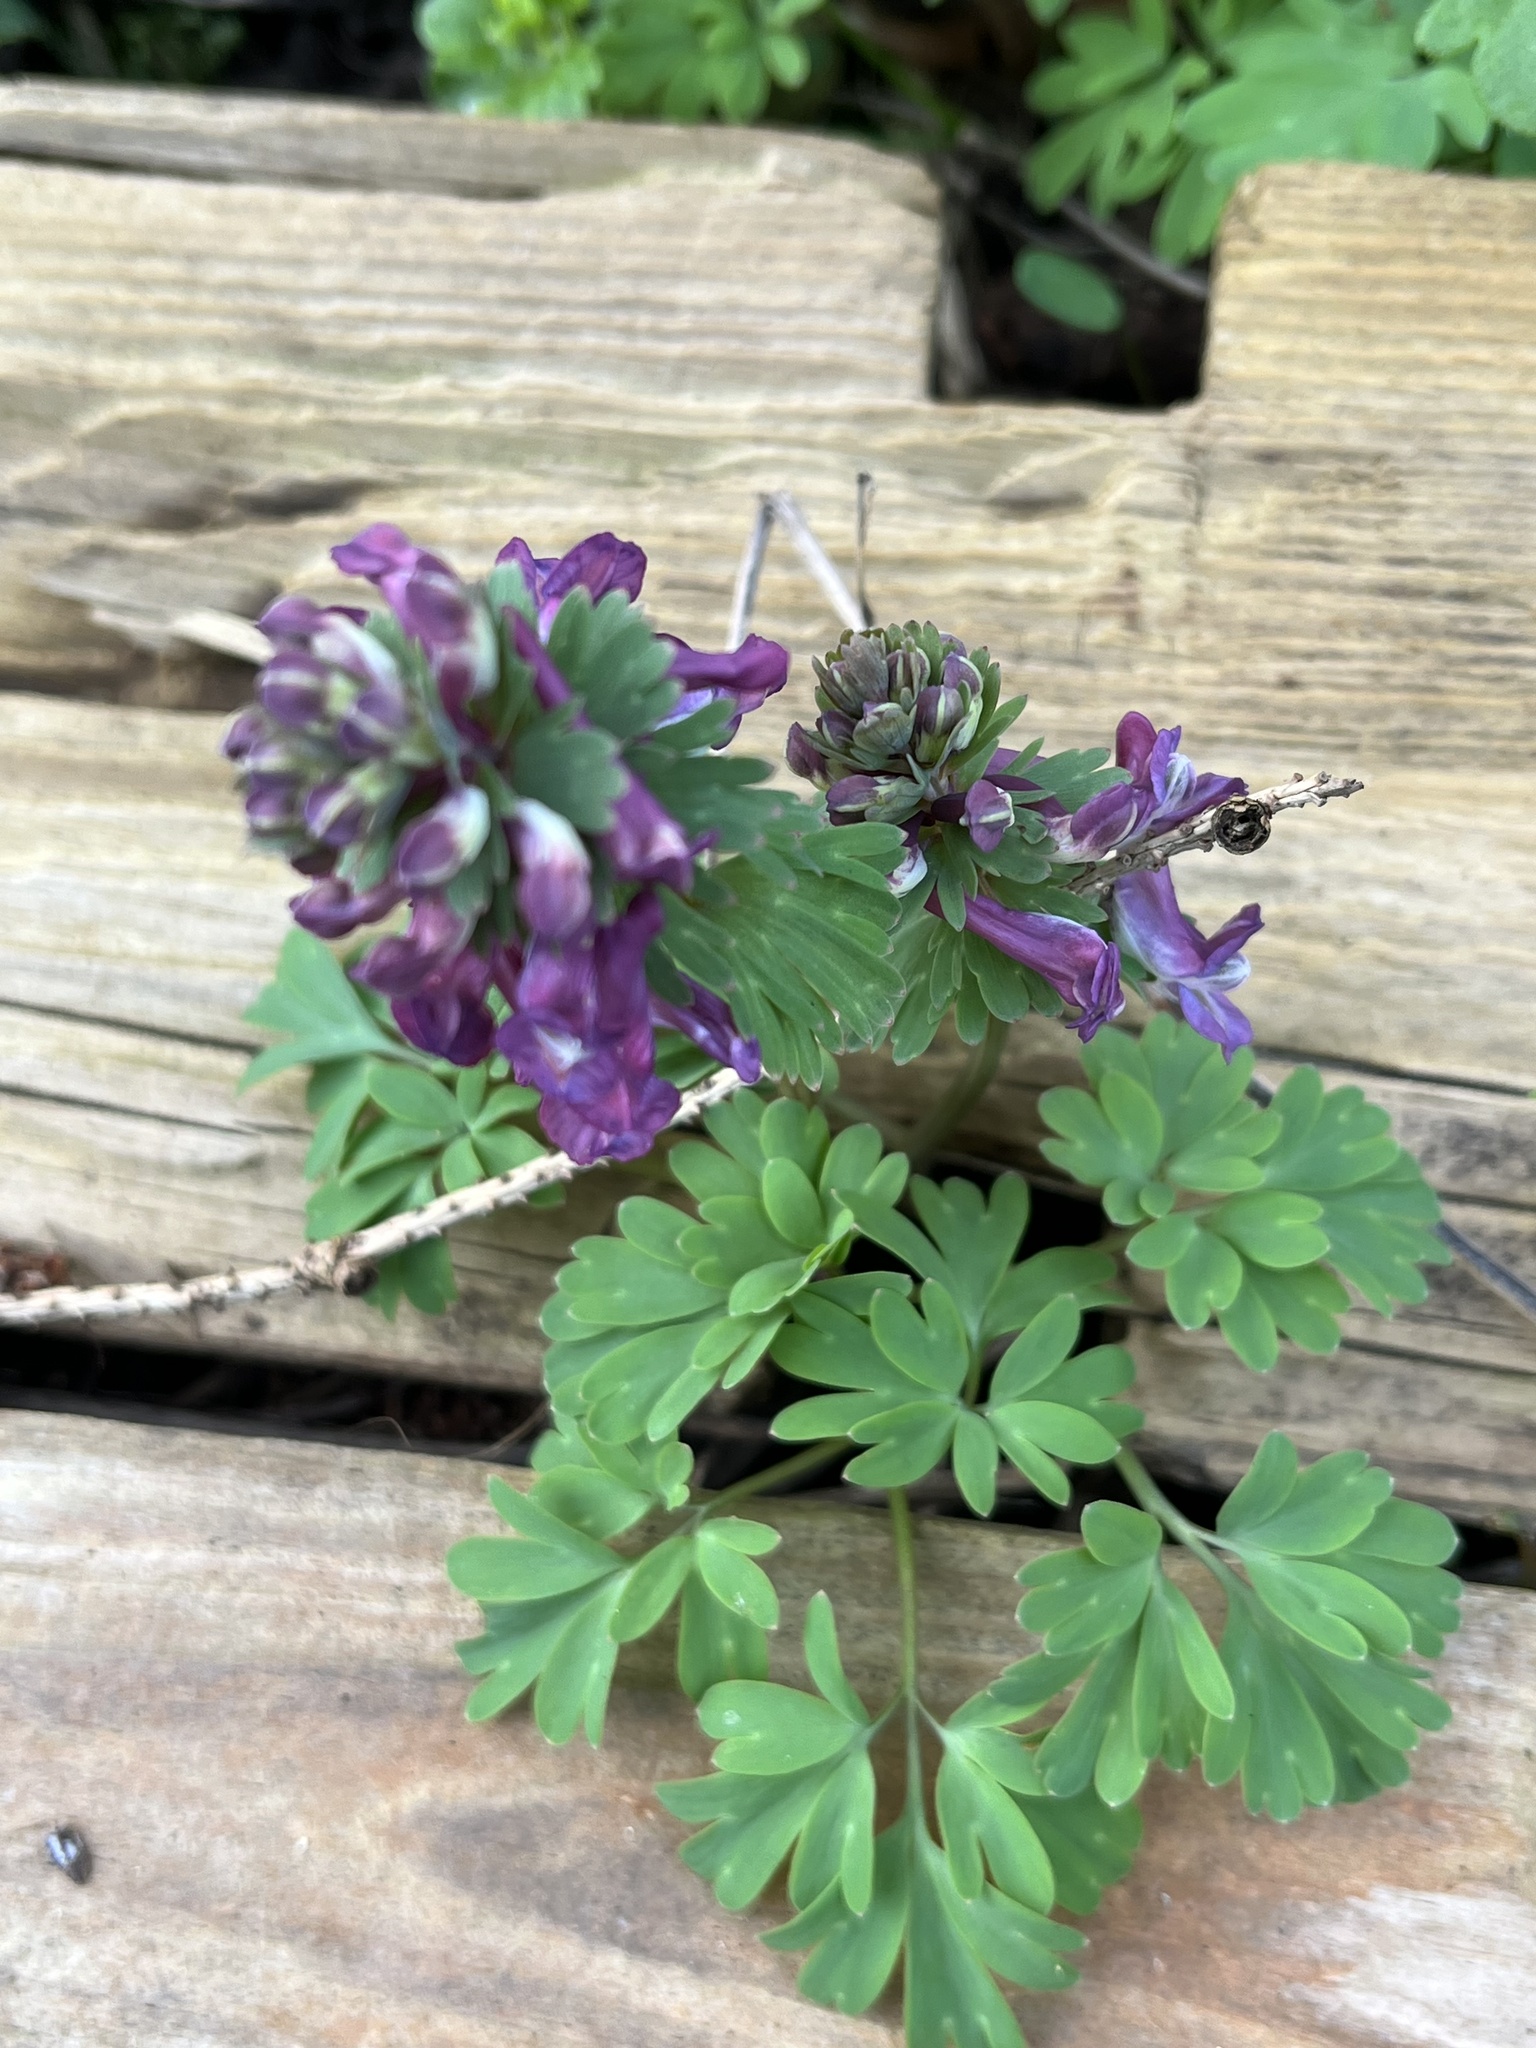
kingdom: Plantae
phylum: Tracheophyta
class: Magnoliopsida
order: Ranunculales
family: Papaveraceae
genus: Corydalis
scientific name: Corydalis solida
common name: Bird-in-a-bush
